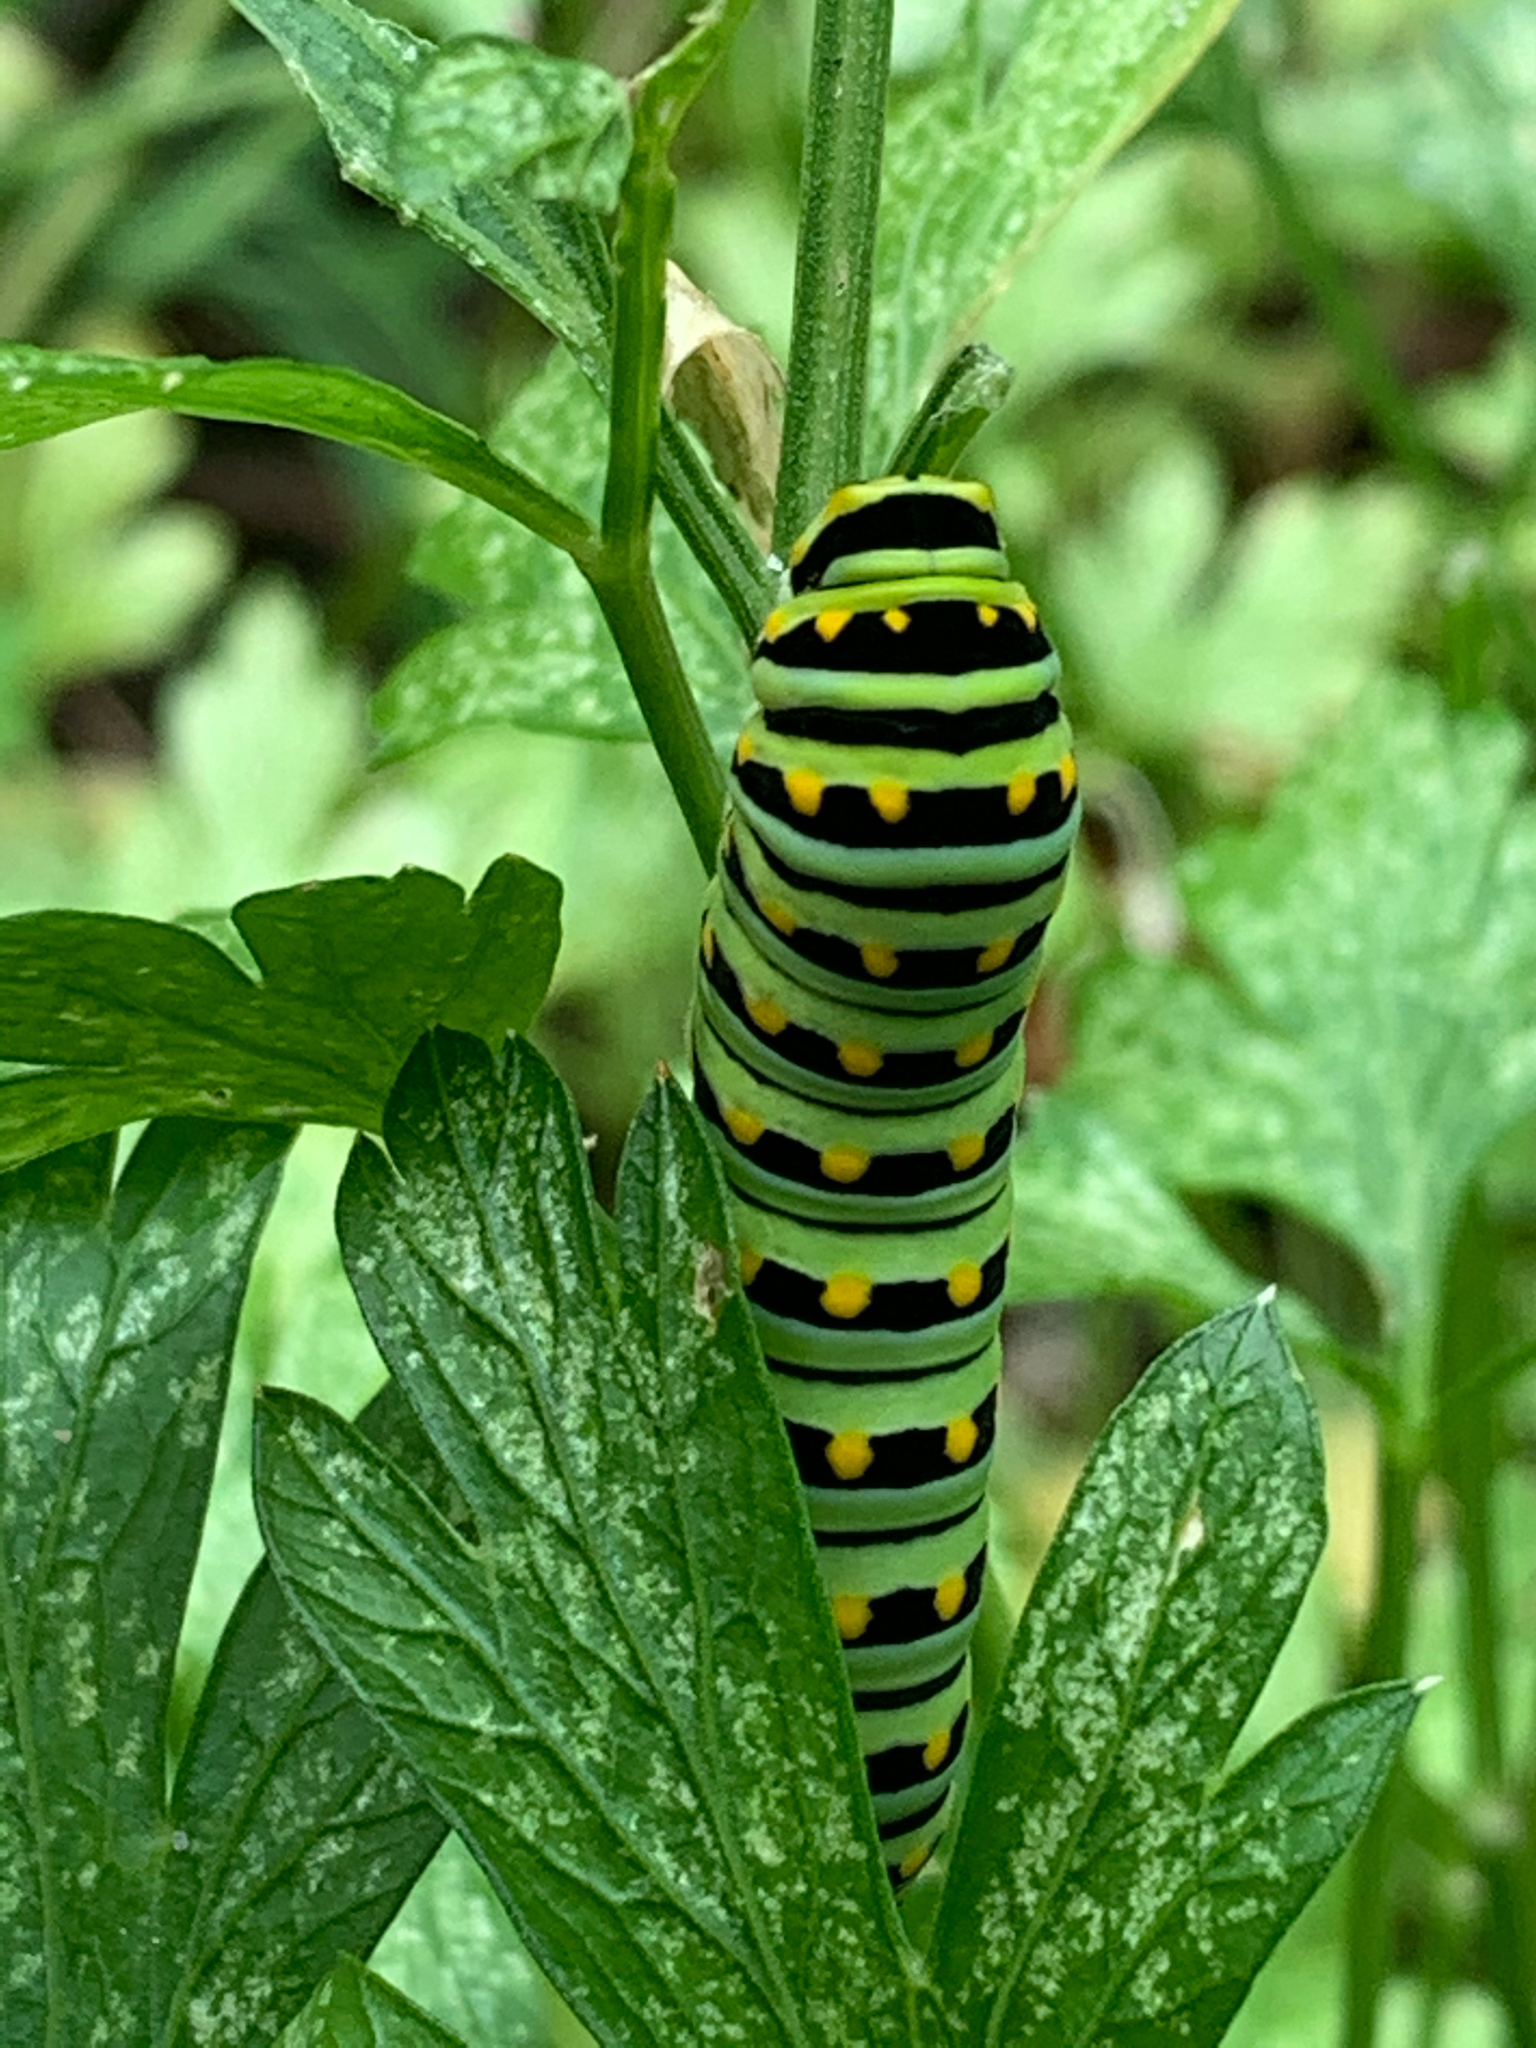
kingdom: Animalia
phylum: Arthropoda
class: Insecta
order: Lepidoptera
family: Papilionidae
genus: Papilio
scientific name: Papilio polyxenes
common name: Black swallowtail
